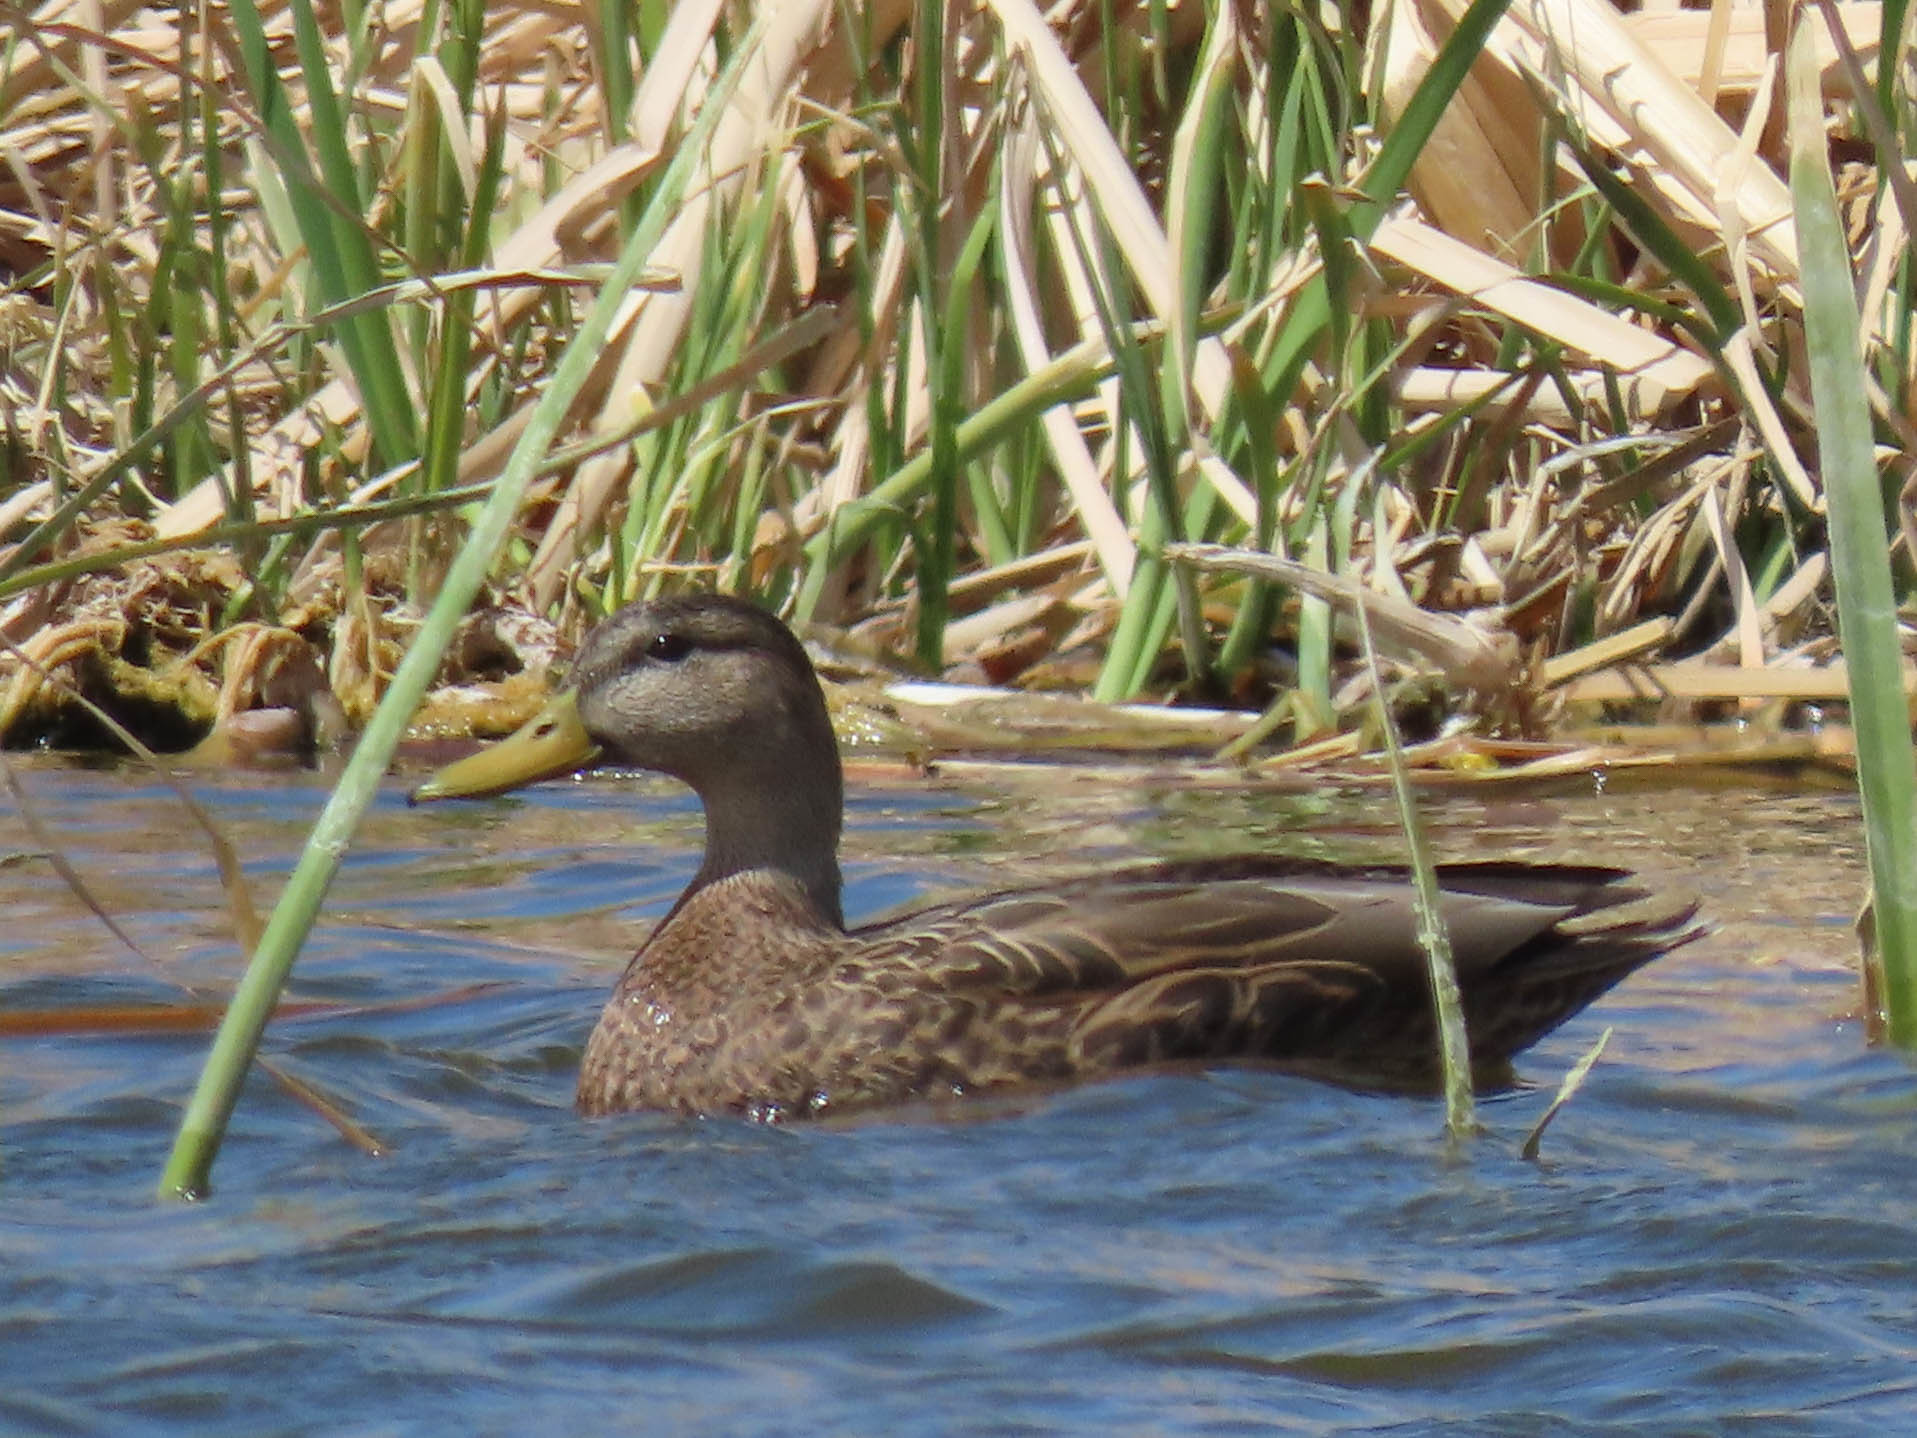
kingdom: Animalia
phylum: Chordata
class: Aves
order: Anseriformes
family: Anatidae
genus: Anas
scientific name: Anas diazi
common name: Mexican duck
